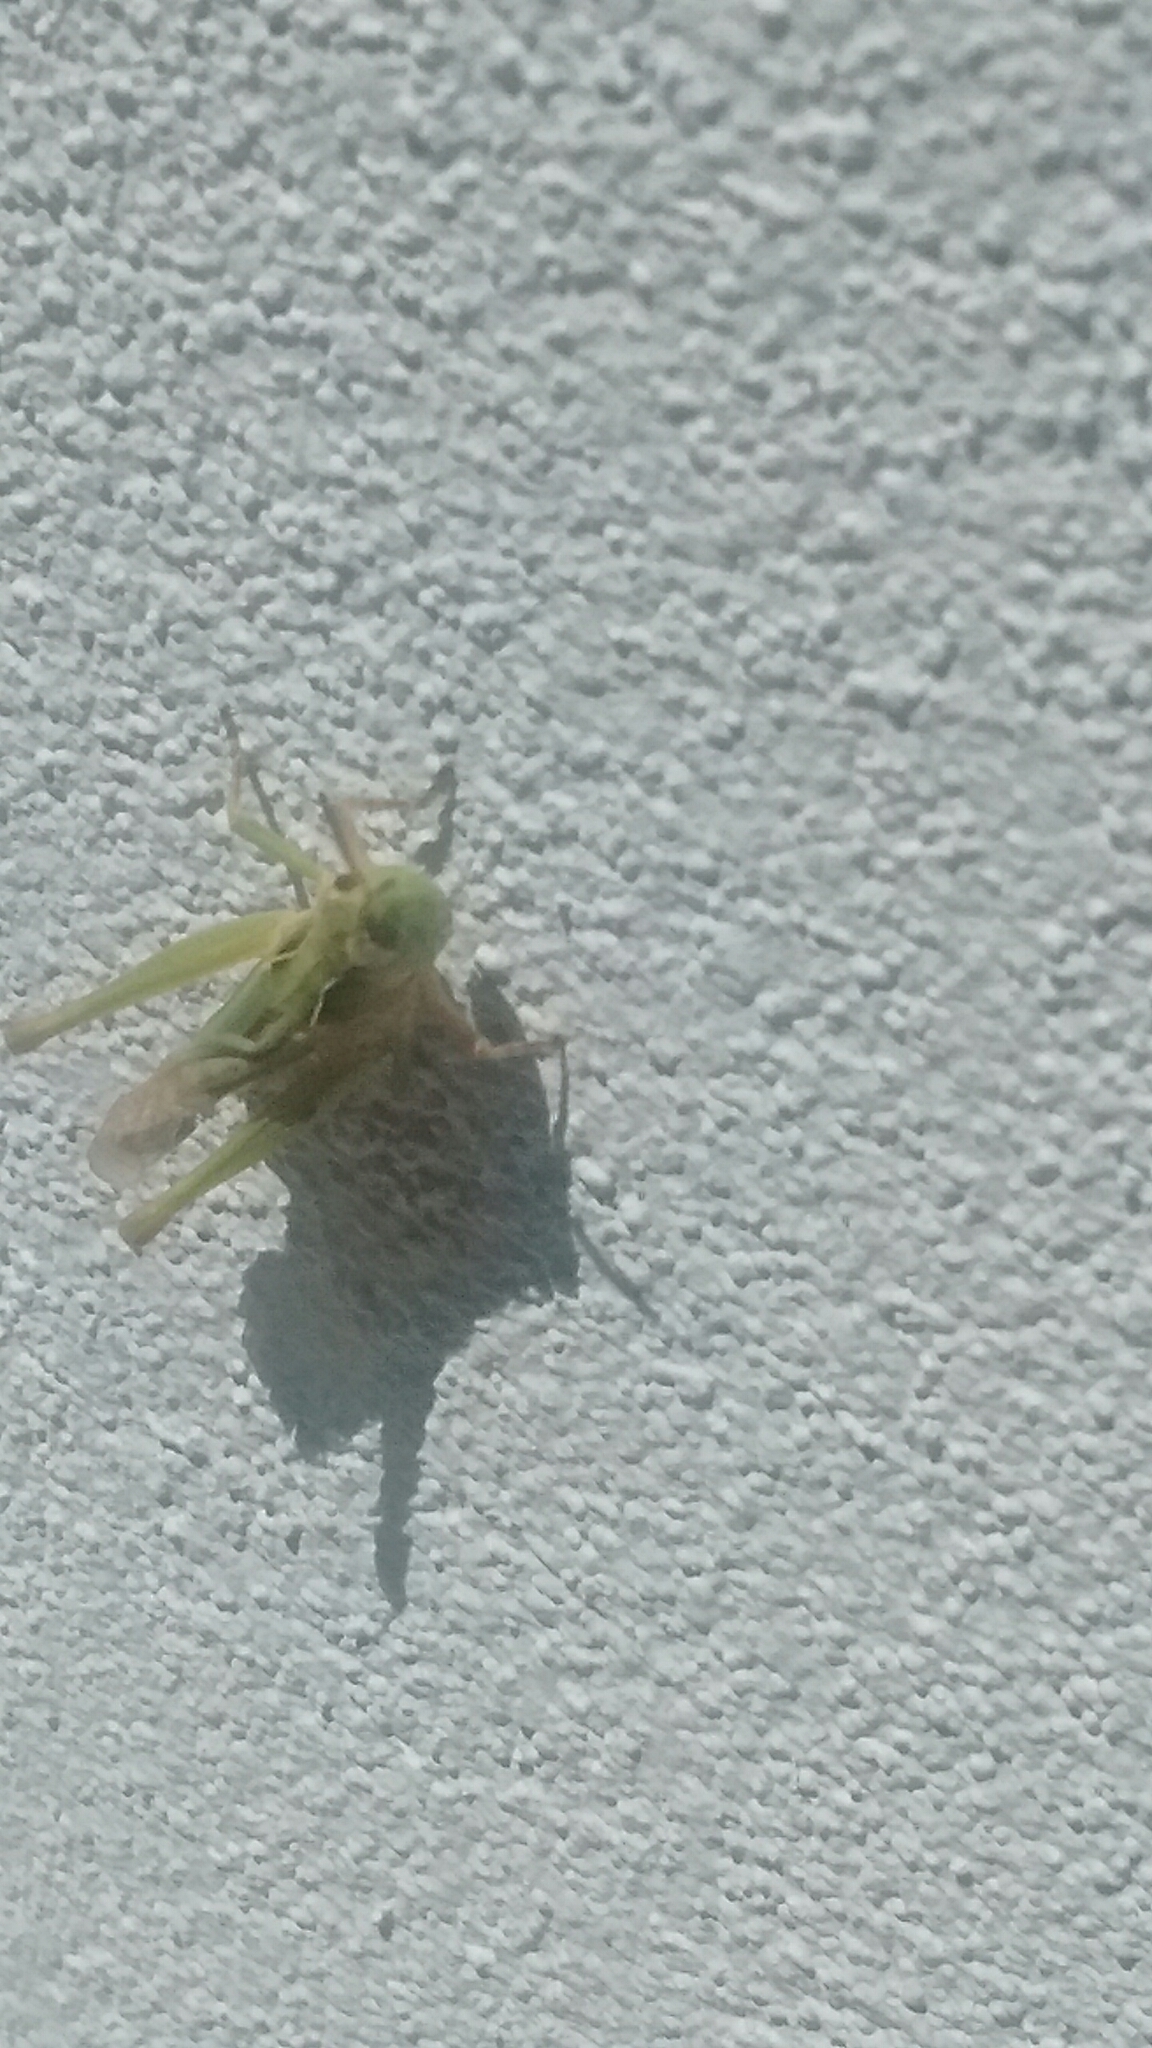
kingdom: Animalia
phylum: Arthropoda
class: Insecta
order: Orthoptera
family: Acrididae
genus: Orphulella
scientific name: Orphulella punctata
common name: Slant-faced grasshopper
